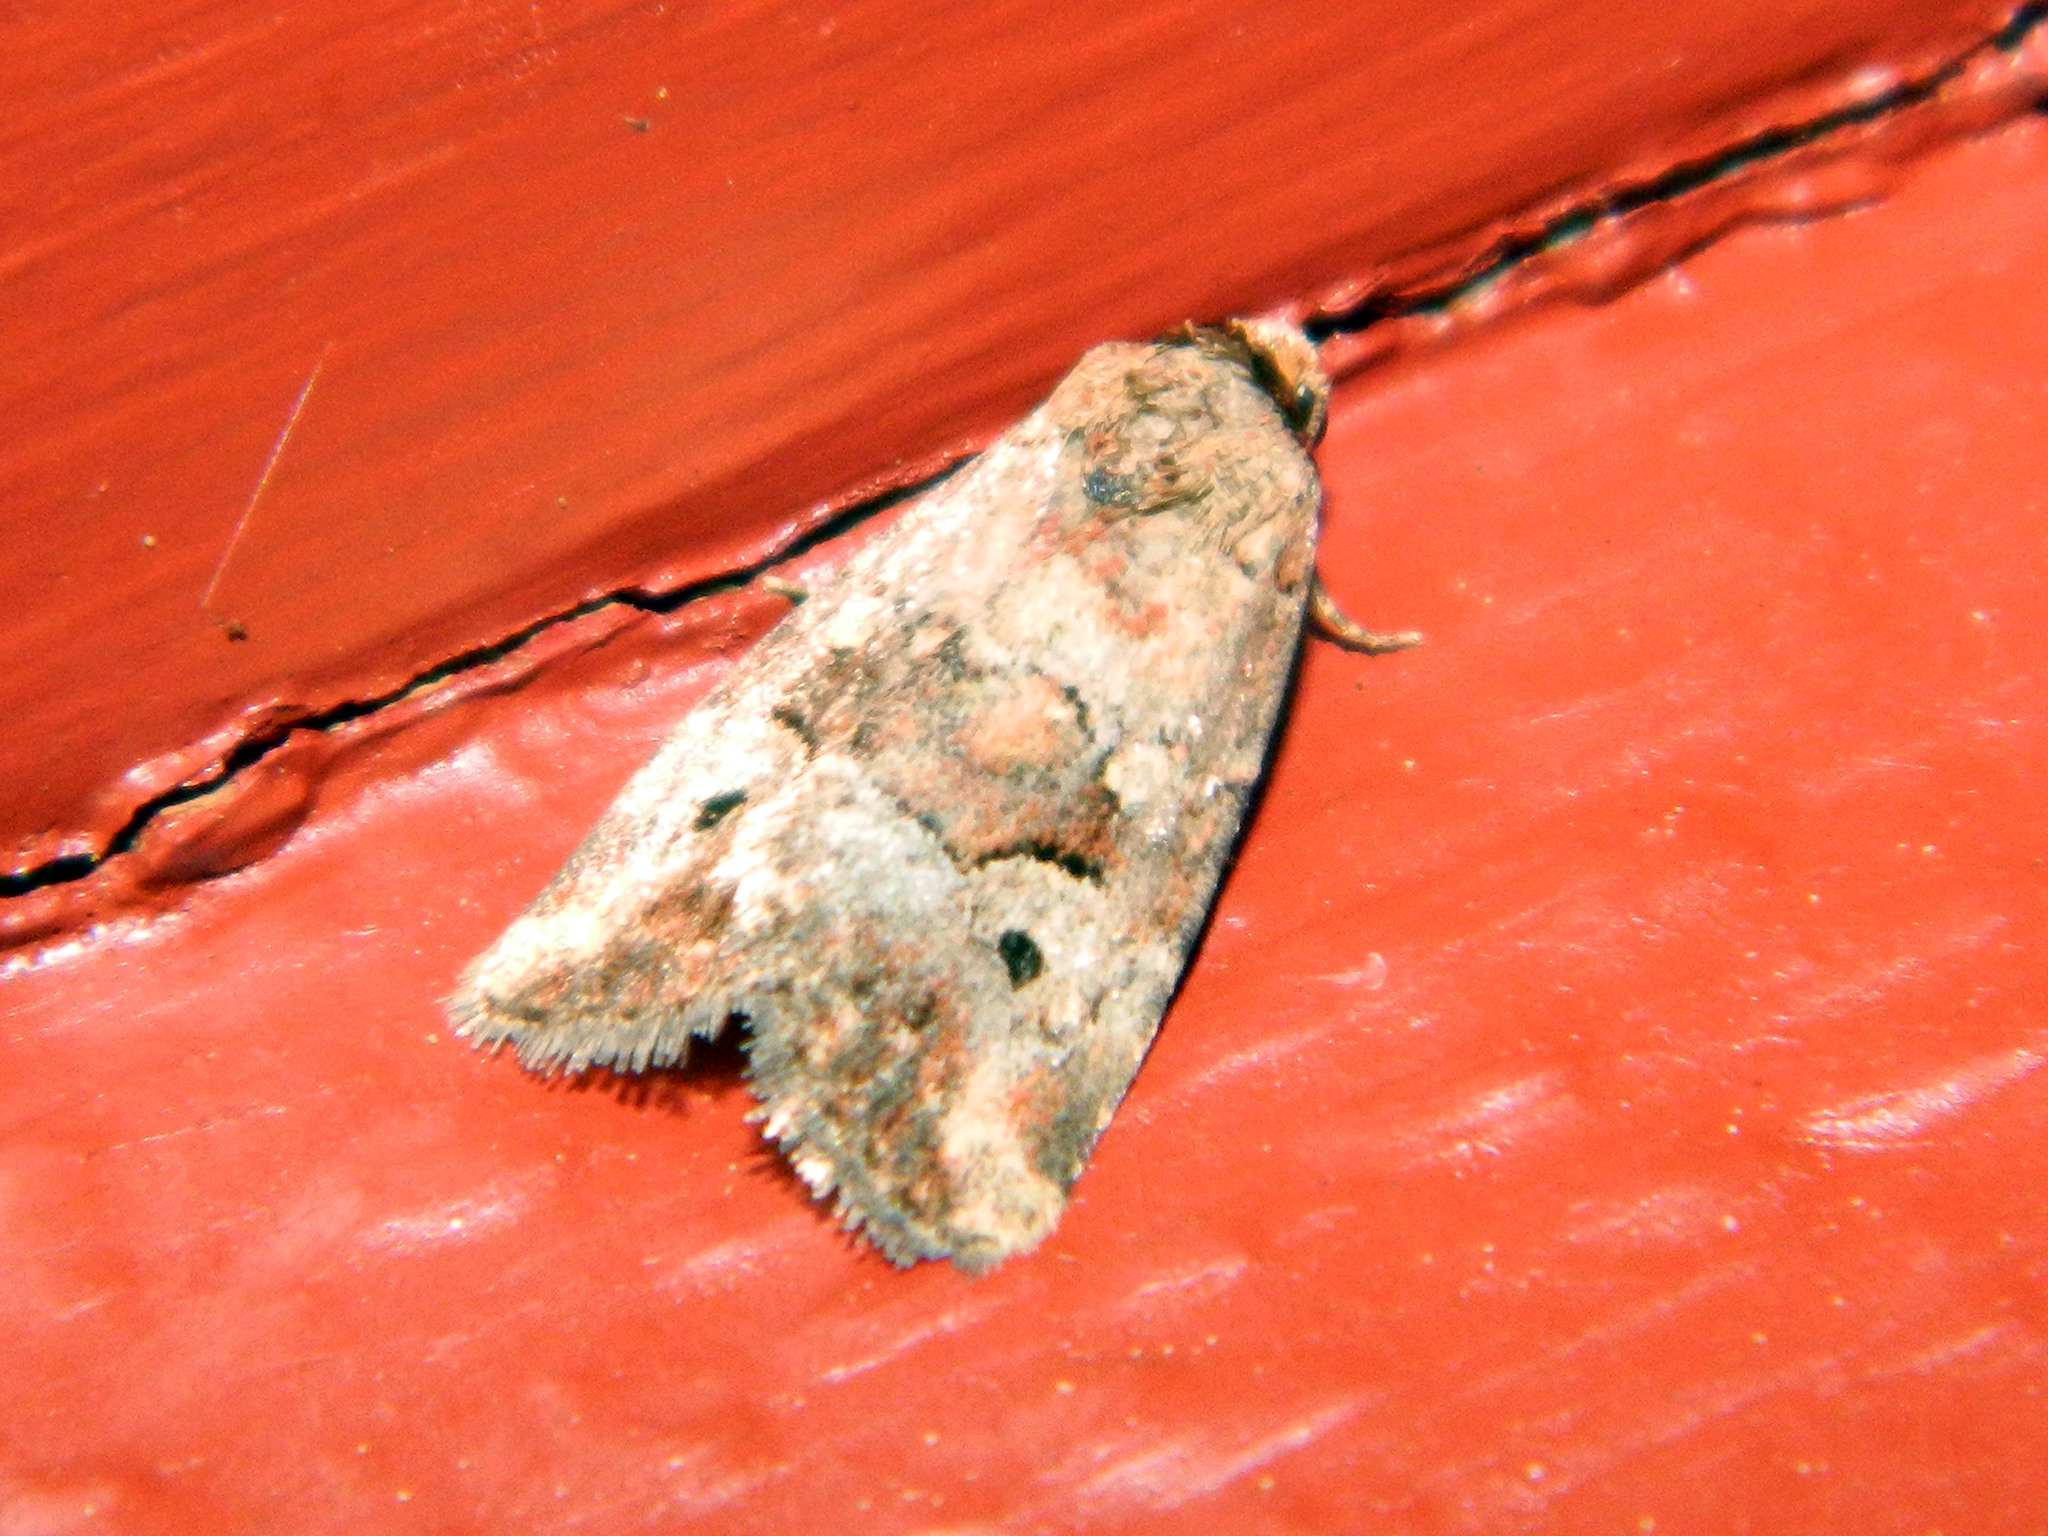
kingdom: Animalia
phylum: Arthropoda
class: Insecta
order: Lepidoptera
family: Noctuidae
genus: Elaphria
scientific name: Elaphria alapallida
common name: Pale-winged midget
